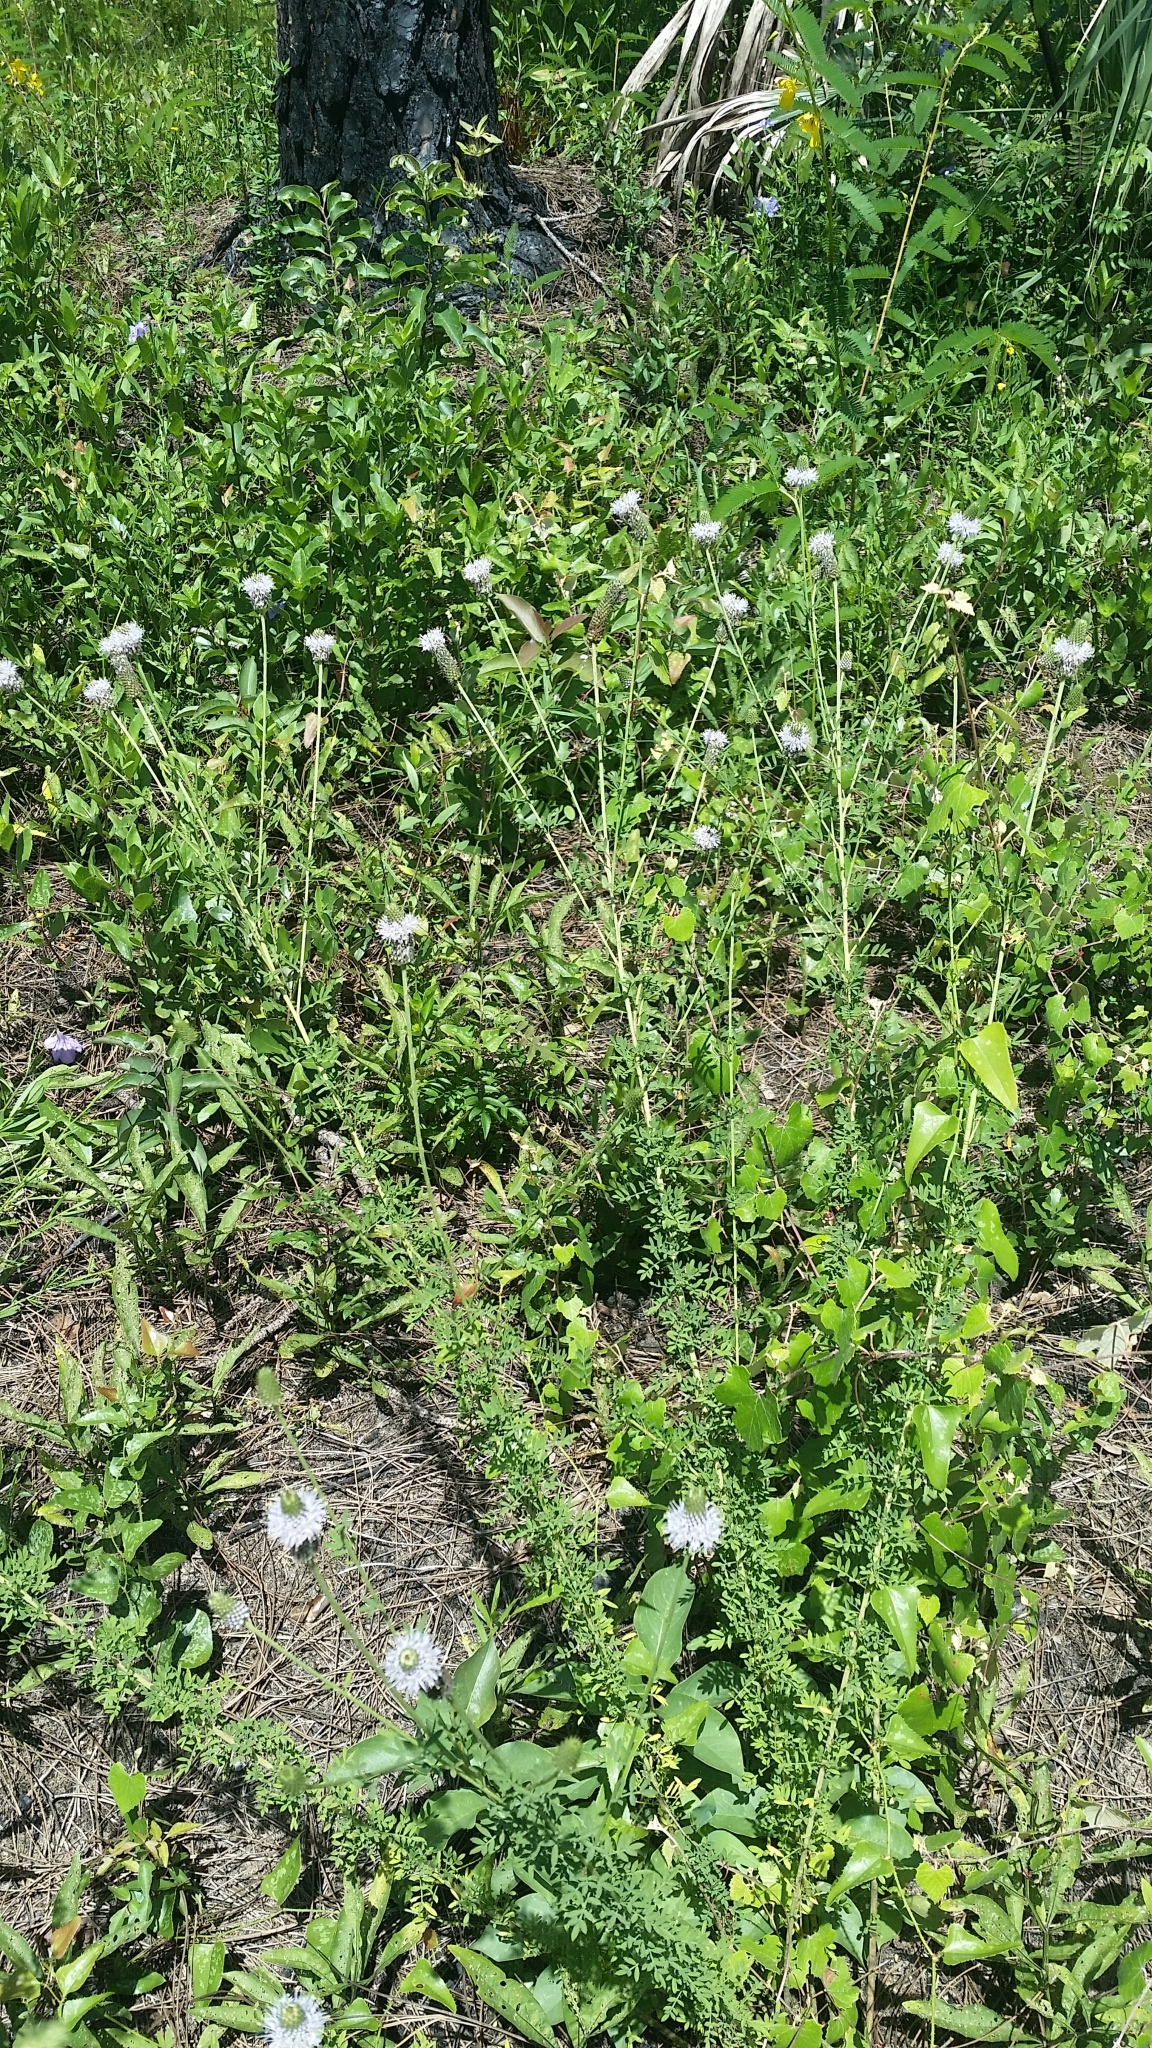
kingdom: Plantae
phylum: Tracheophyta
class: Magnoliopsida
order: Fabales
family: Fabaceae
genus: Dalea
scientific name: Dalea carnea
